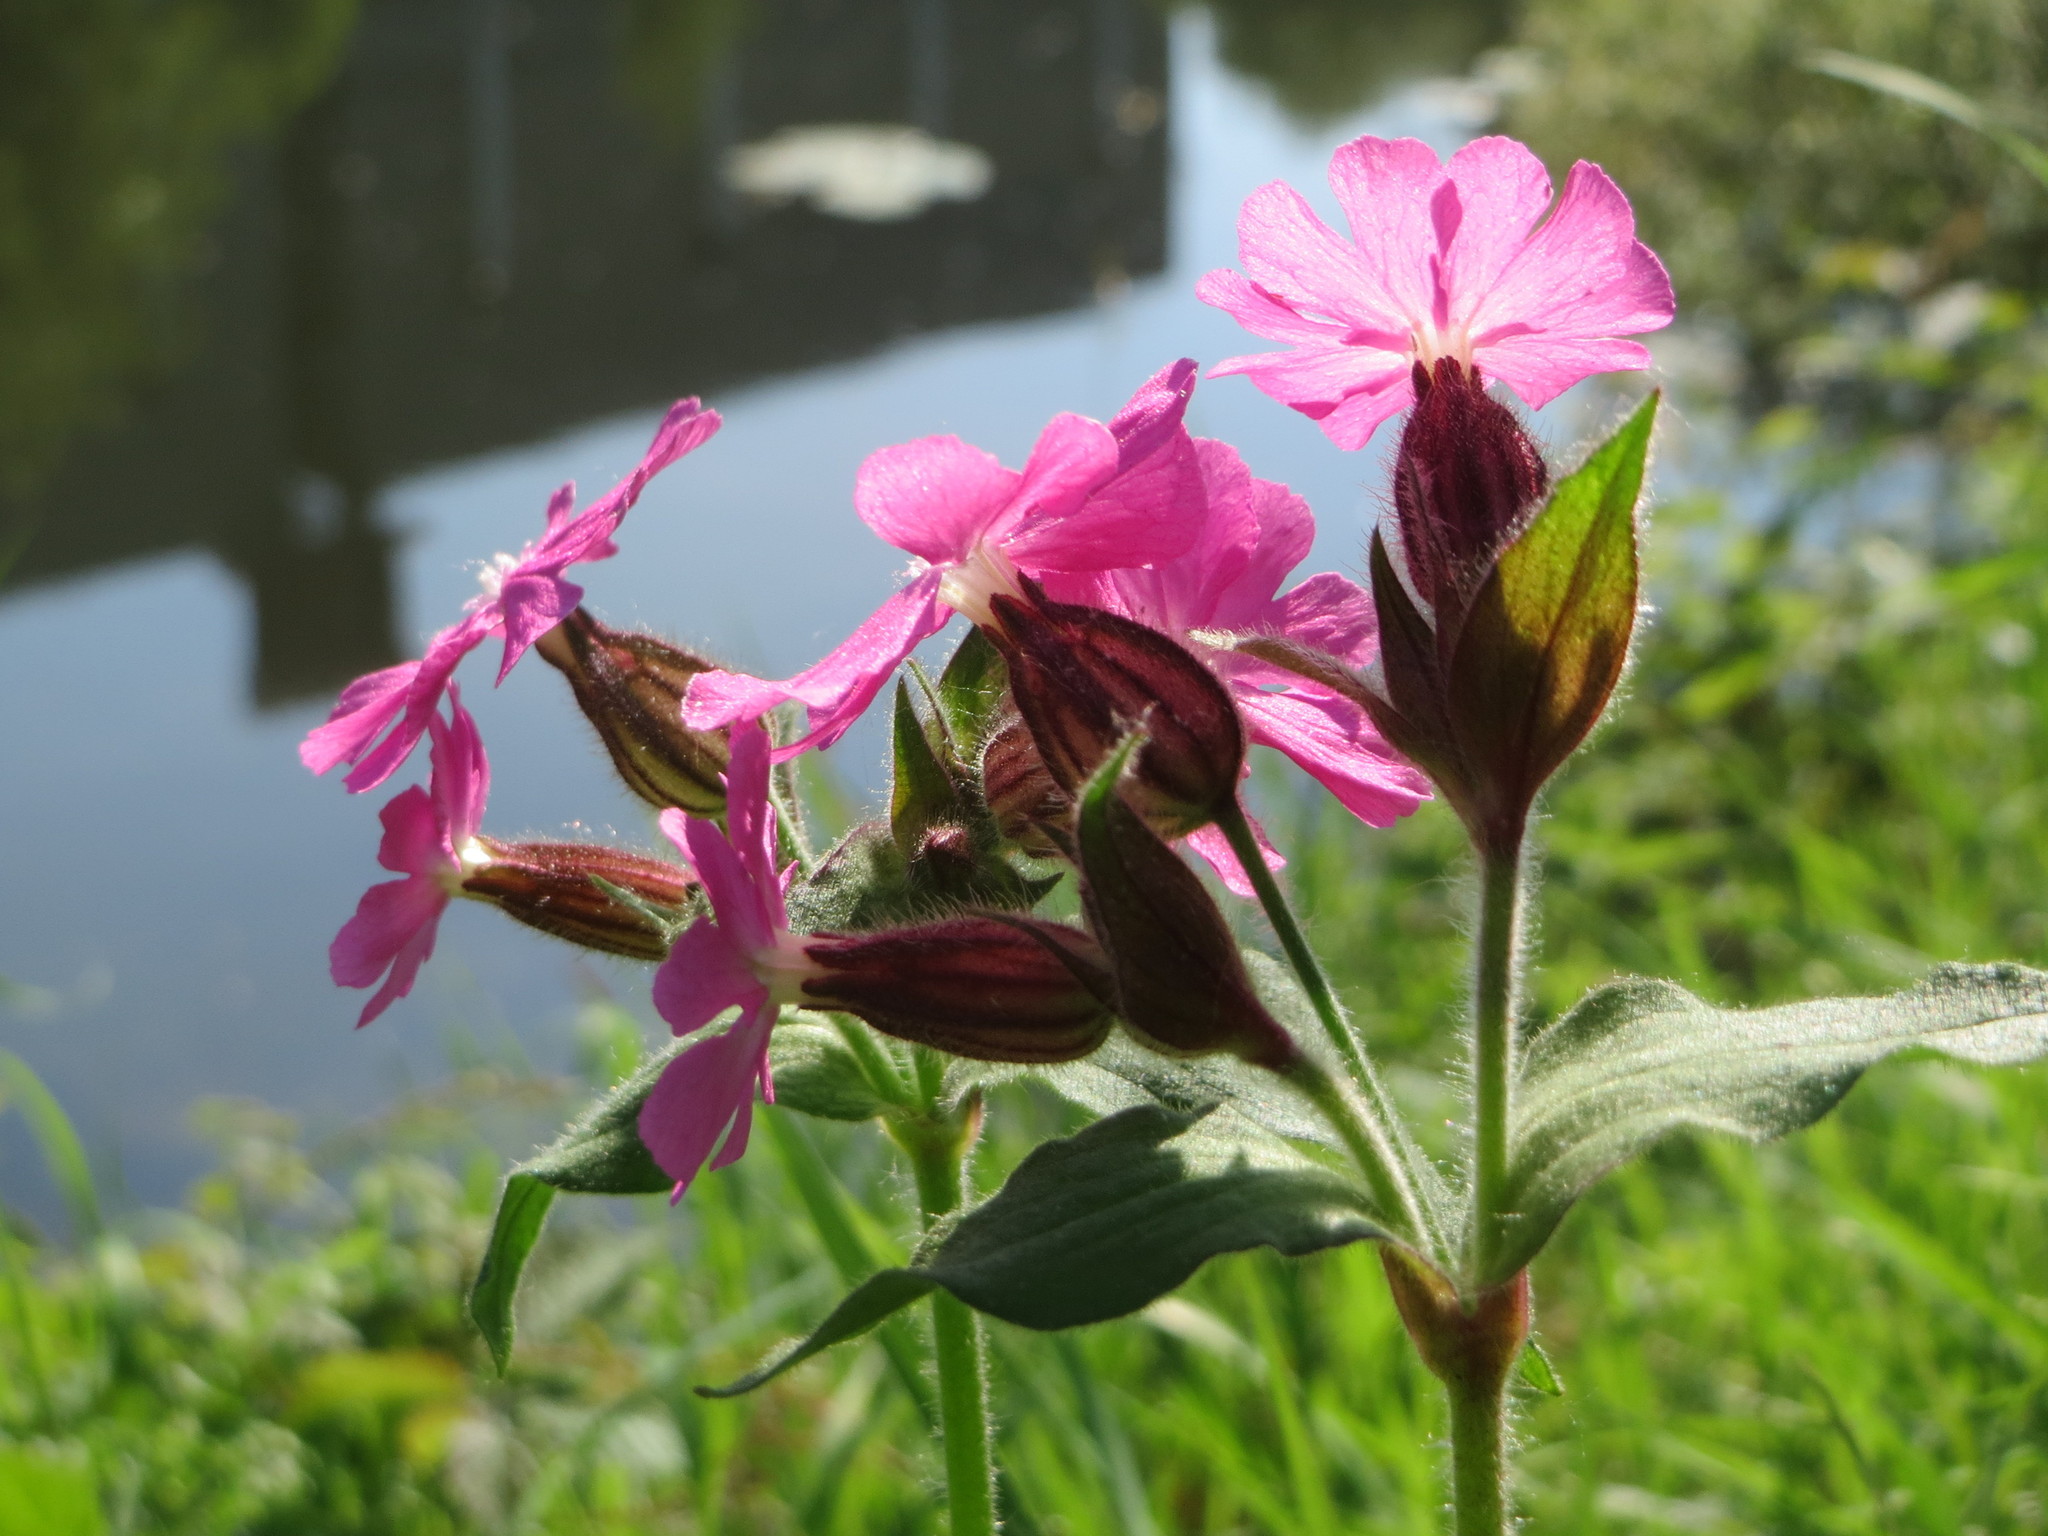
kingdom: Plantae
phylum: Tracheophyta
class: Magnoliopsida
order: Caryophyllales
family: Caryophyllaceae
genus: Silene
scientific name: Silene dioica
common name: Red campion
